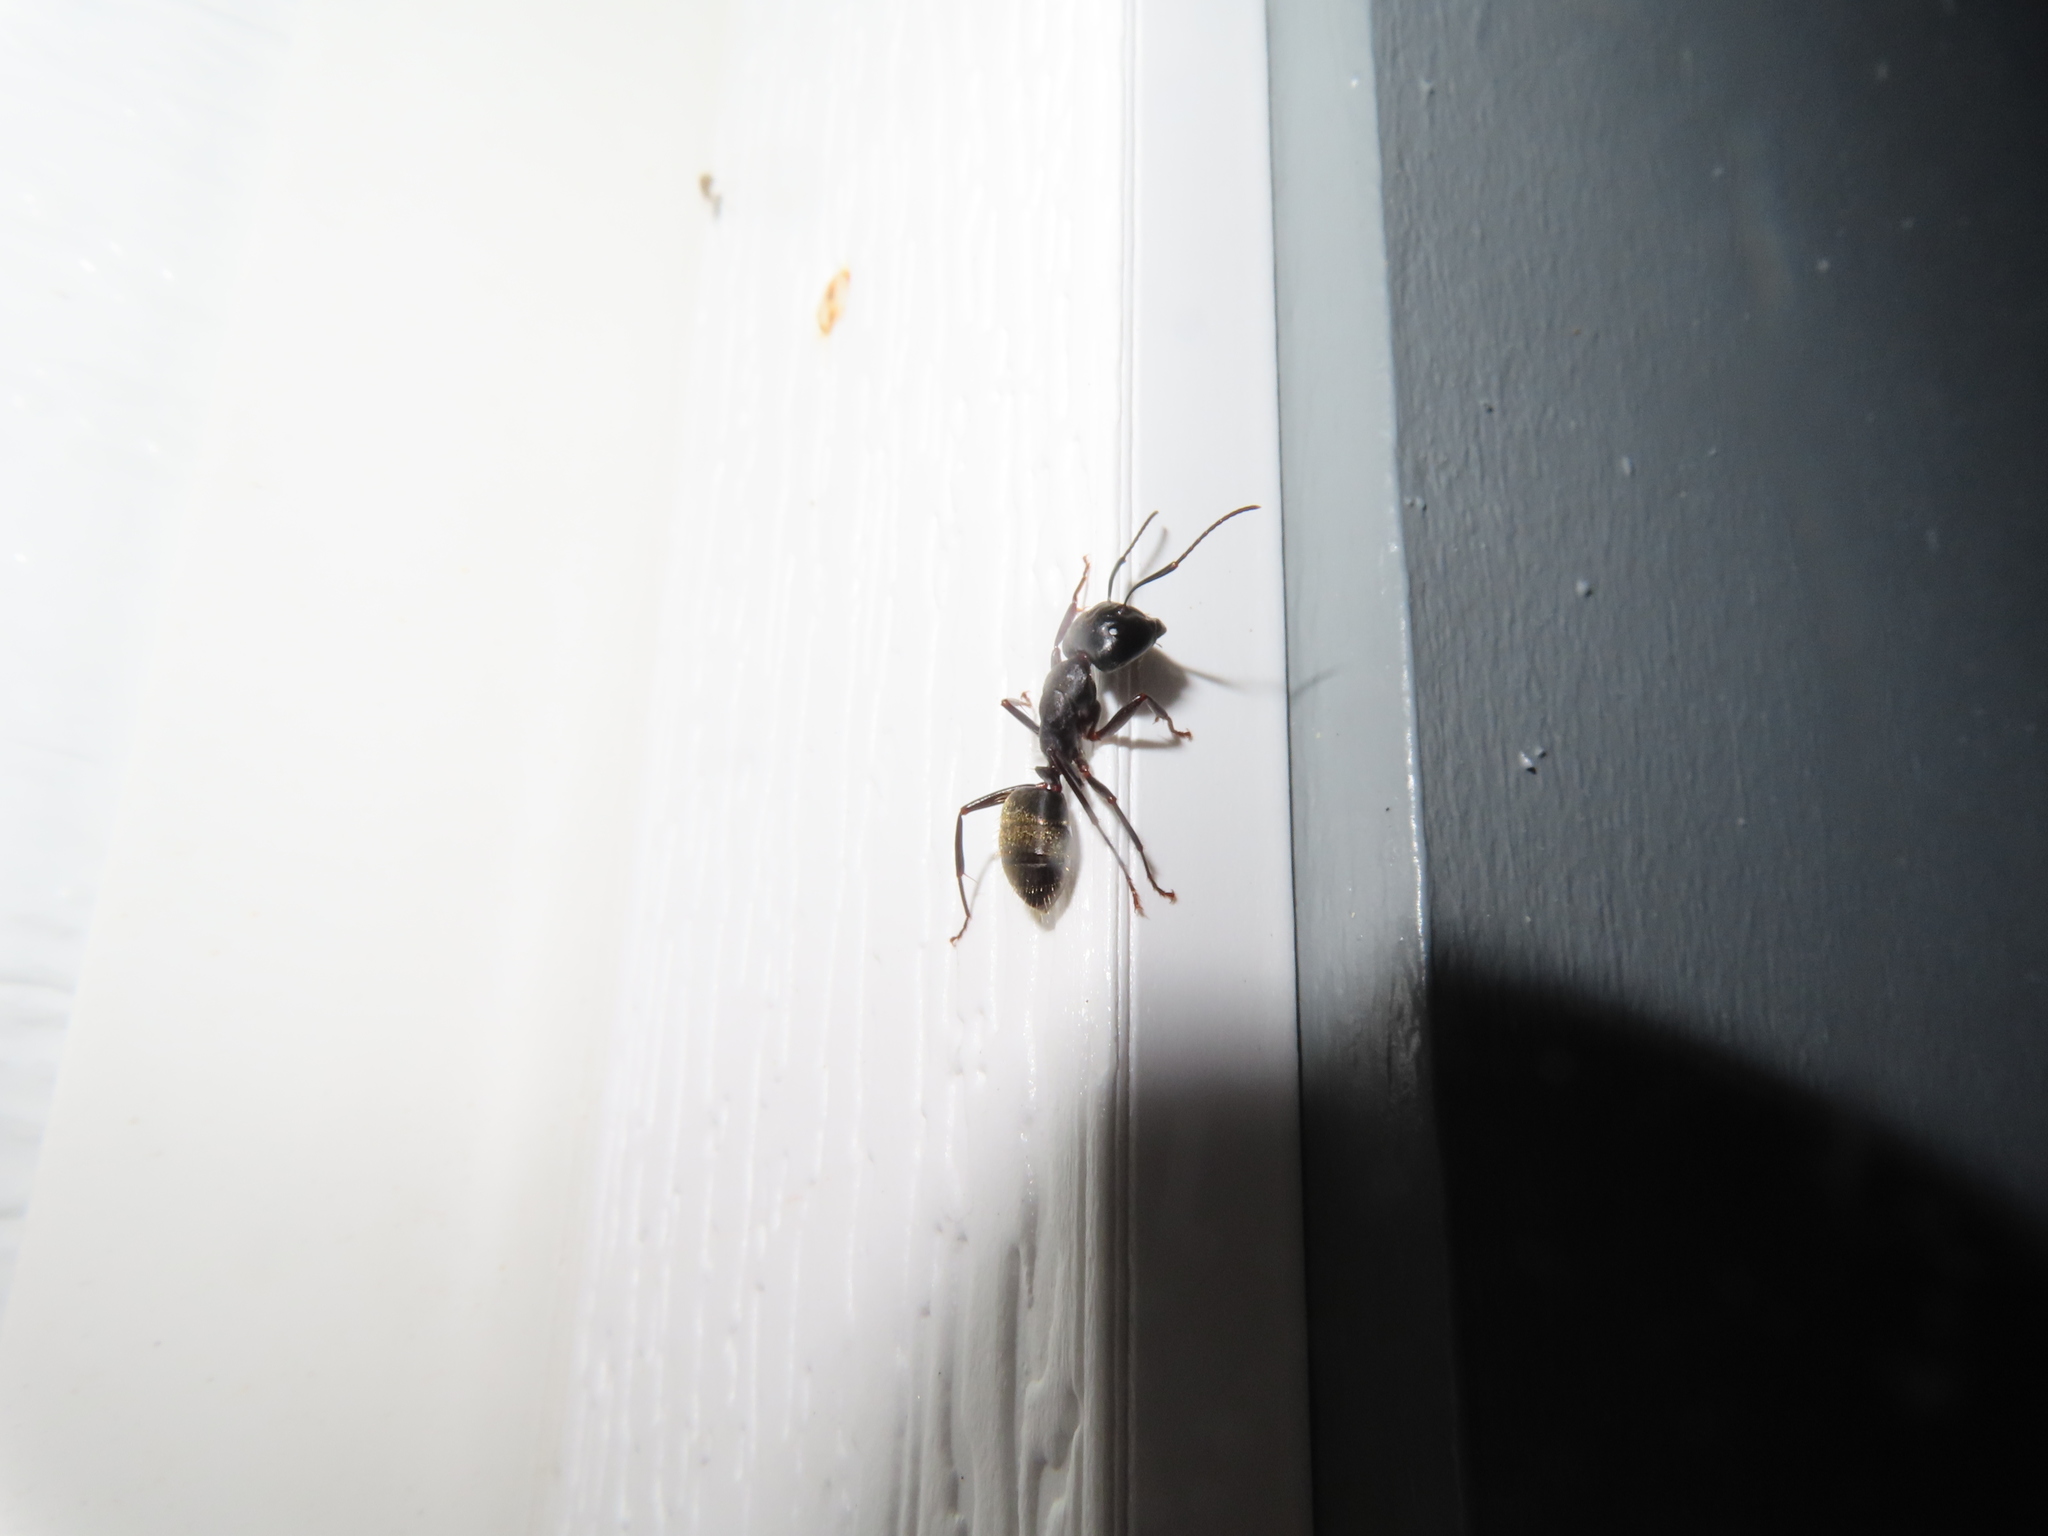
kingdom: Animalia
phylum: Arthropoda
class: Insecta
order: Hymenoptera
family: Formicidae
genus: Camponotus
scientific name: Camponotus pennsylvanicus
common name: Black carpenter ant
